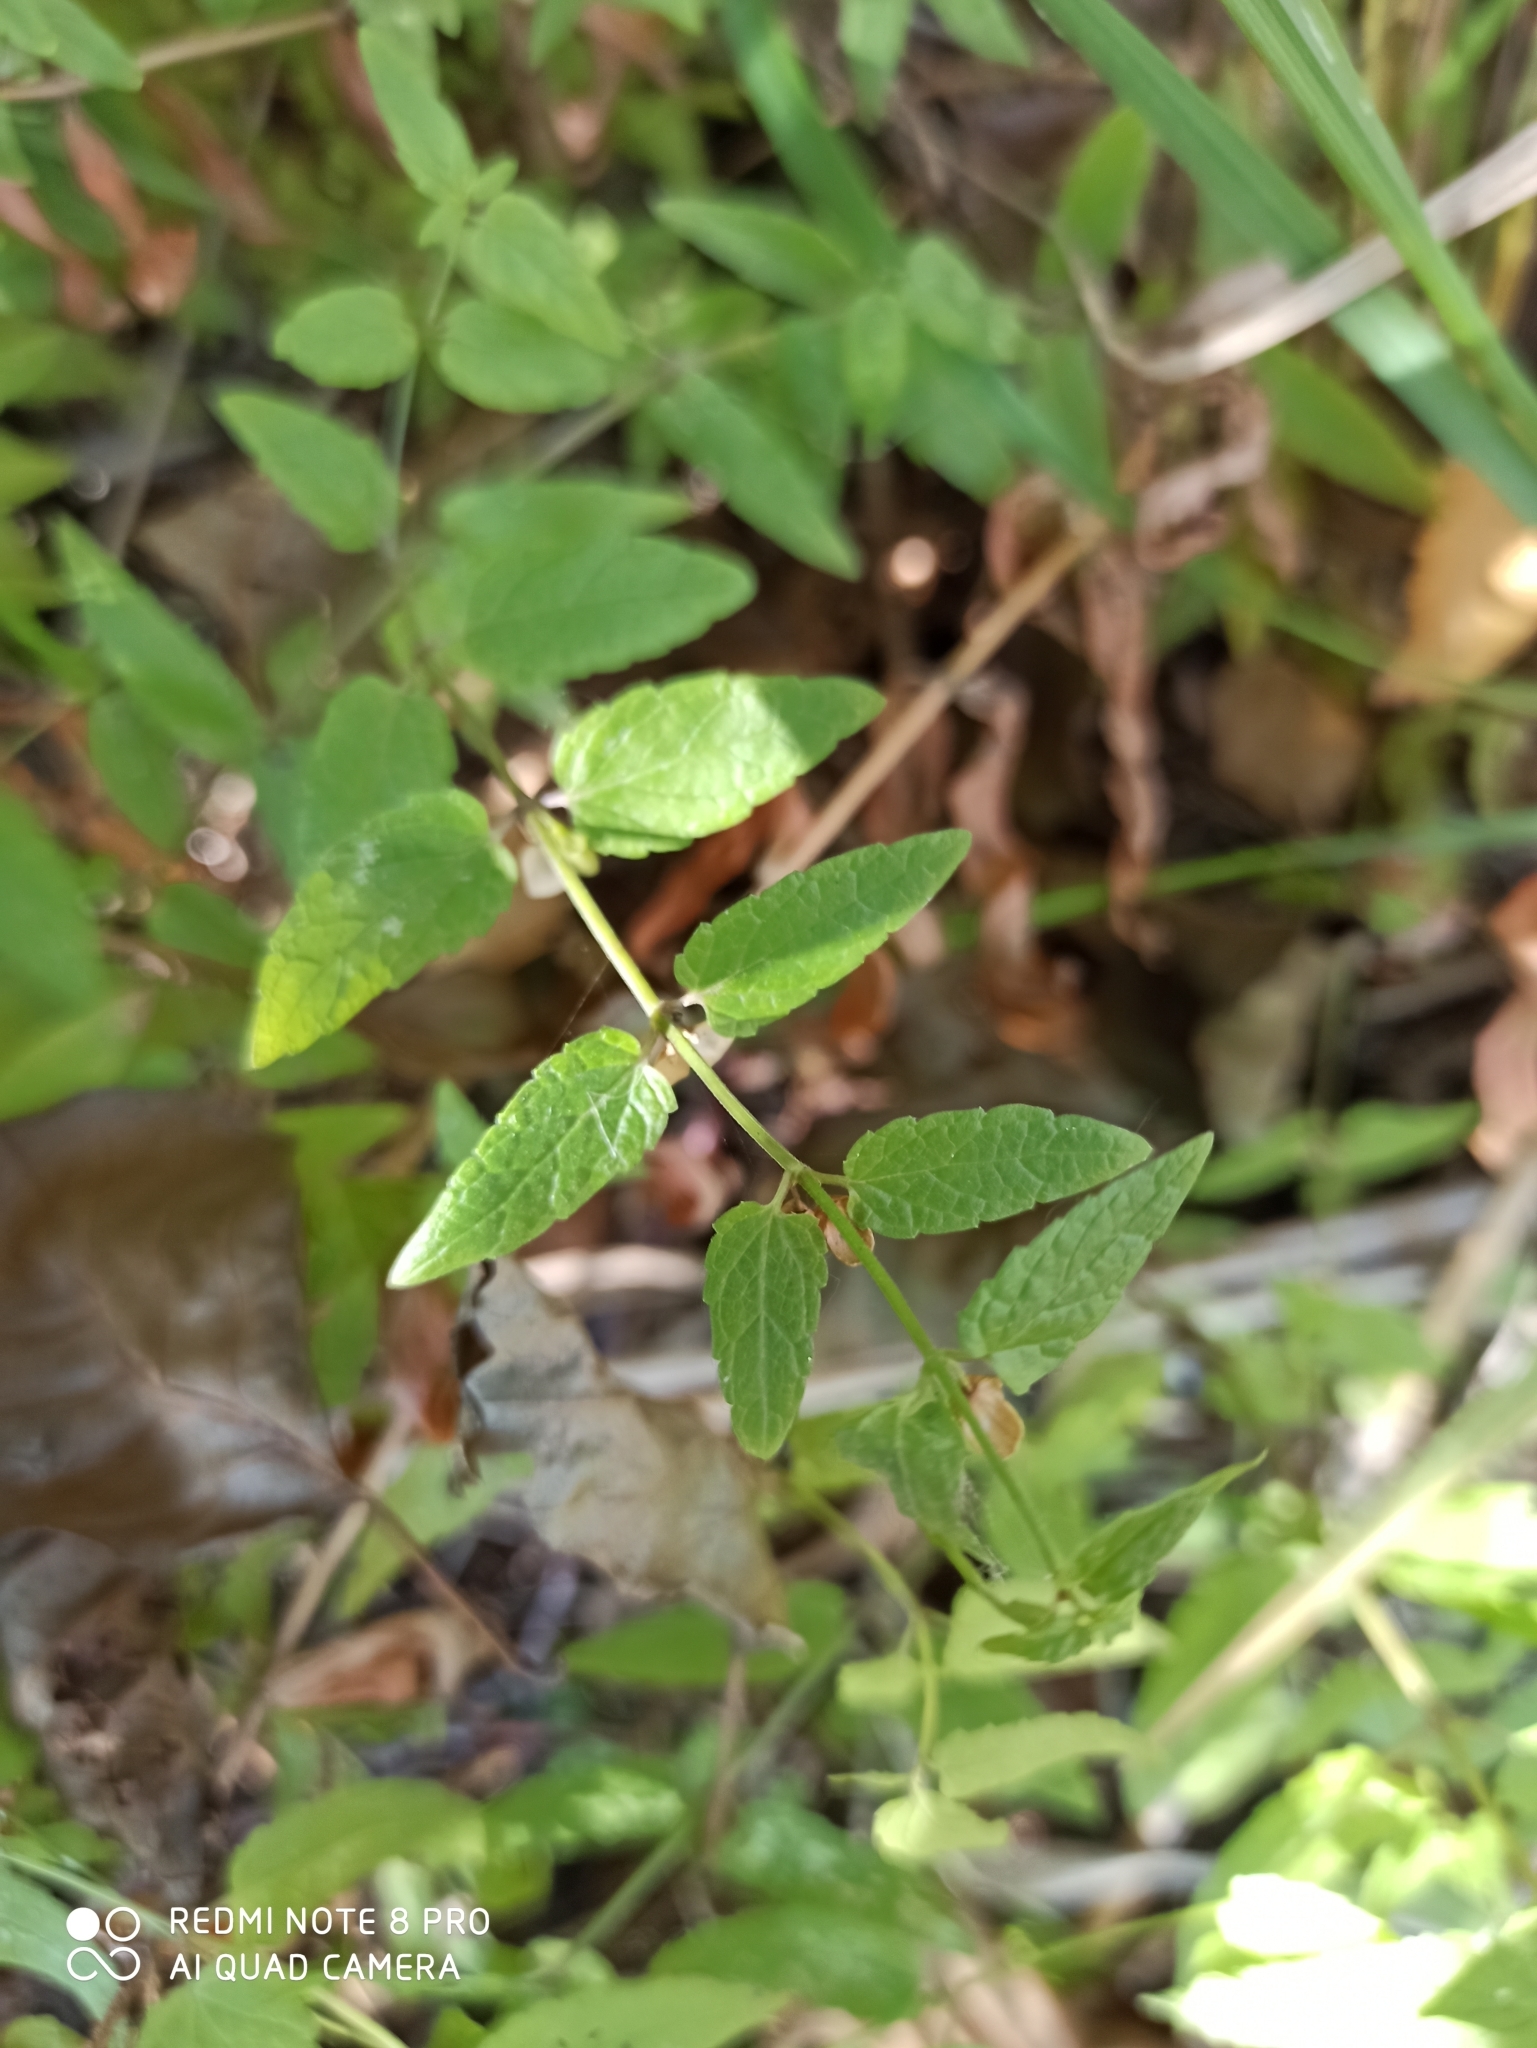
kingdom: Plantae
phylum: Tracheophyta
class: Magnoliopsida
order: Lamiales
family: Lamiaceae
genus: Scutellaria
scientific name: Scutellaria galericulata
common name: Skullcap
